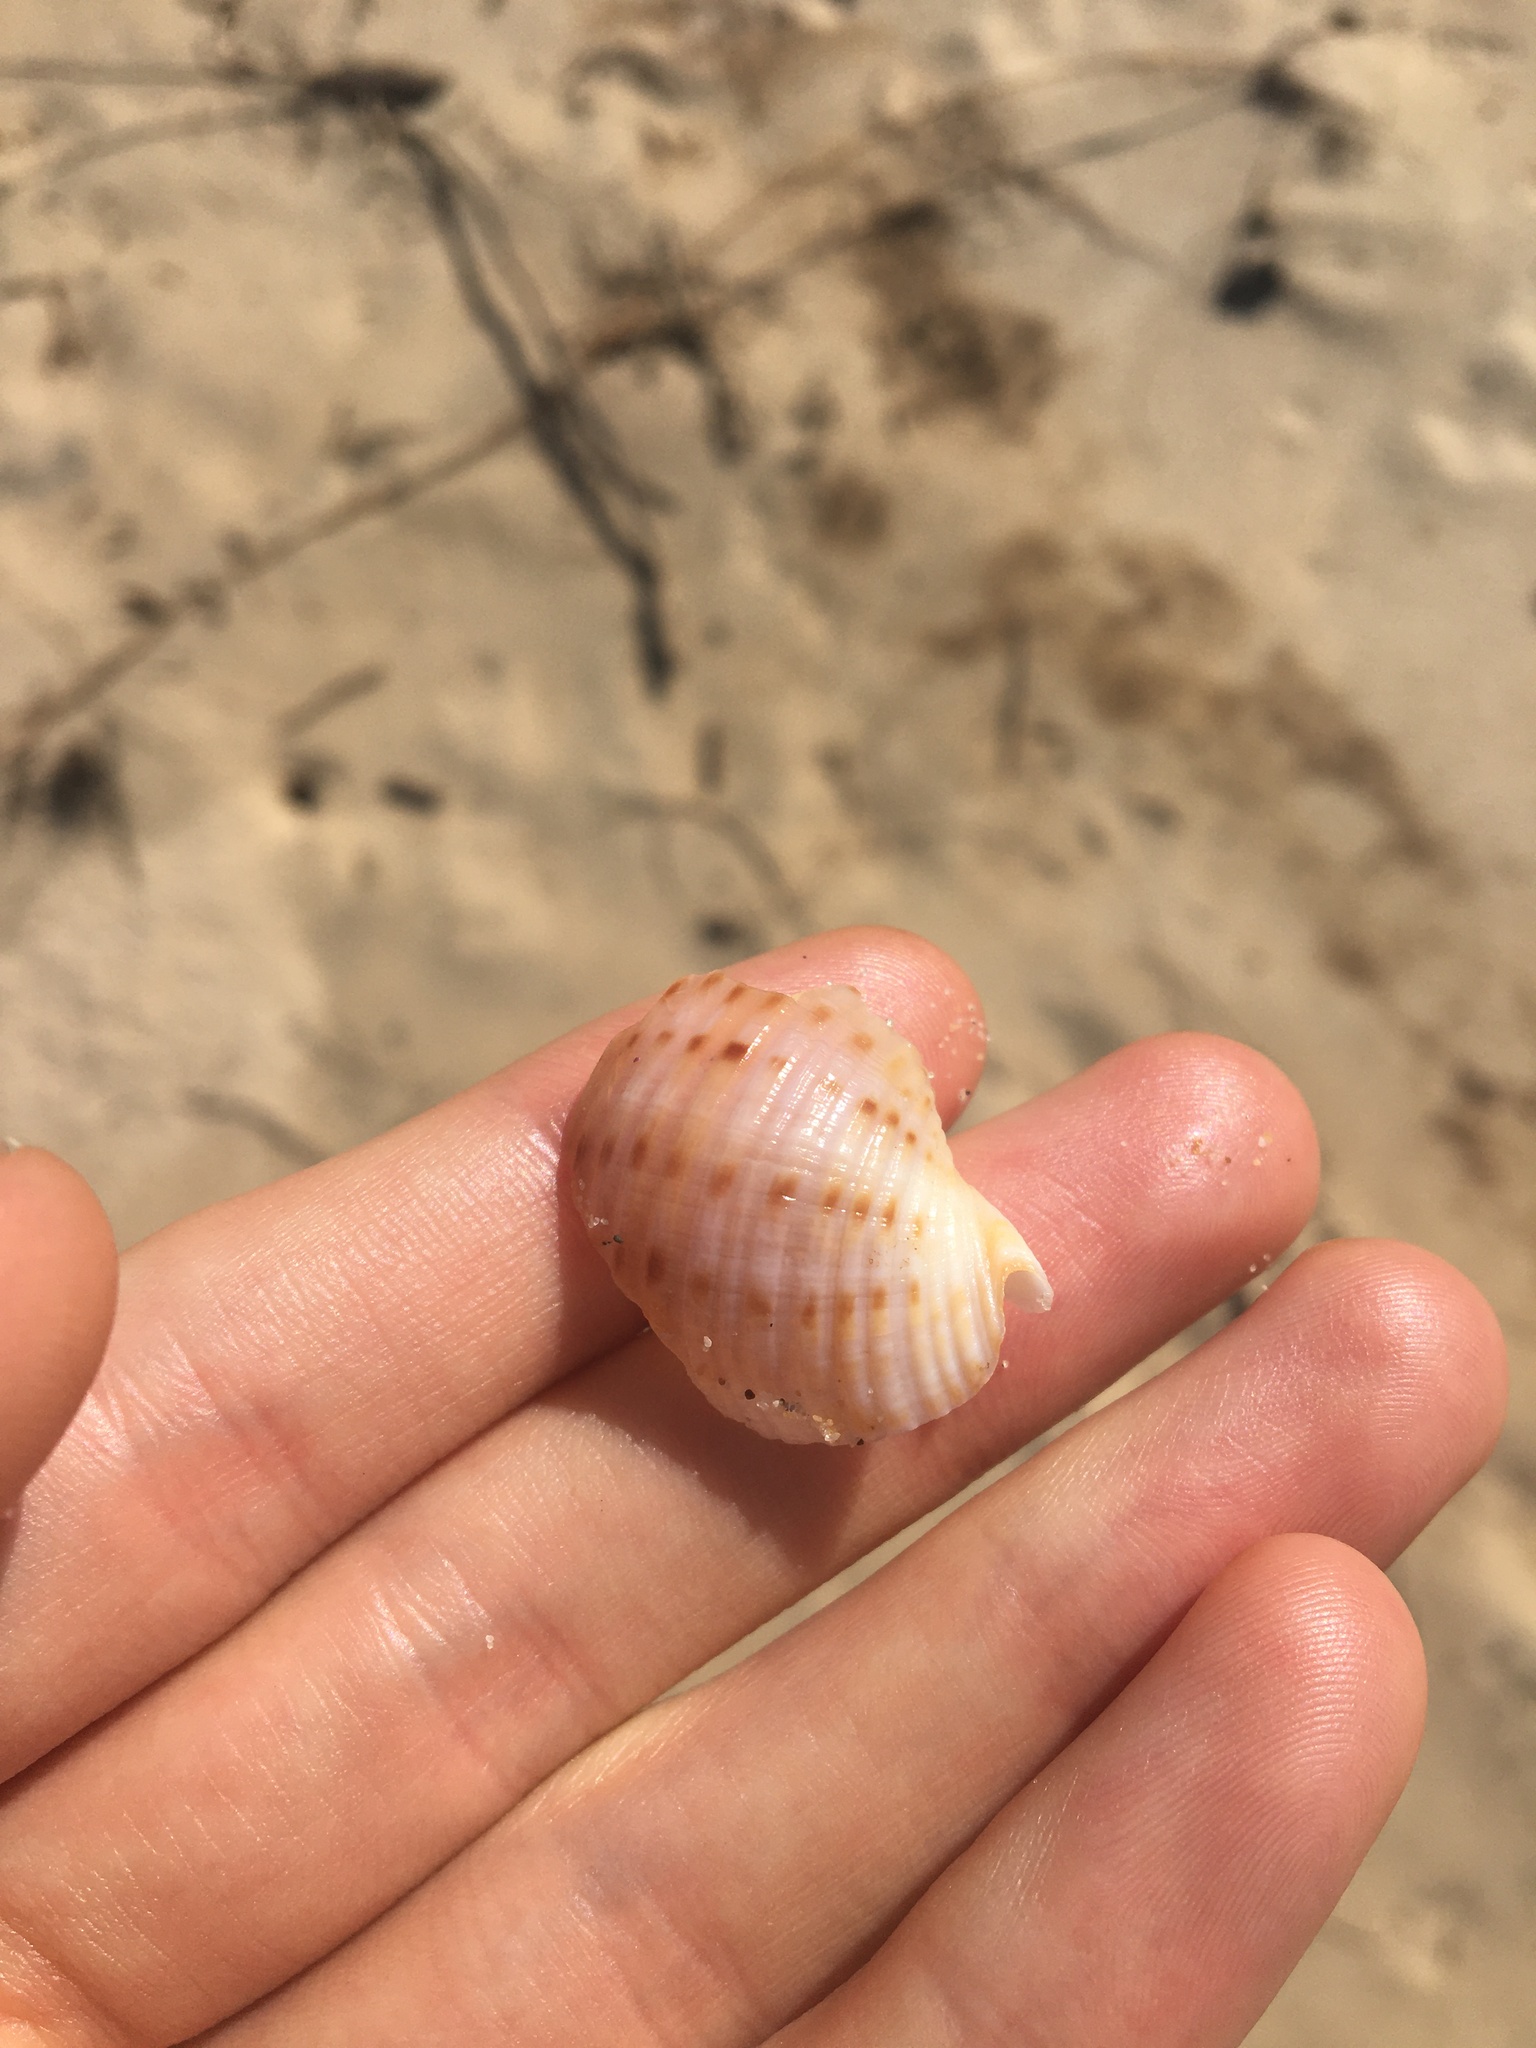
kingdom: Animalia
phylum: Mollusca
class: Gastropoda
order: Littorinimorpha
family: Tonnidae
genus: Tonna
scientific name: Tonna tankervillii
